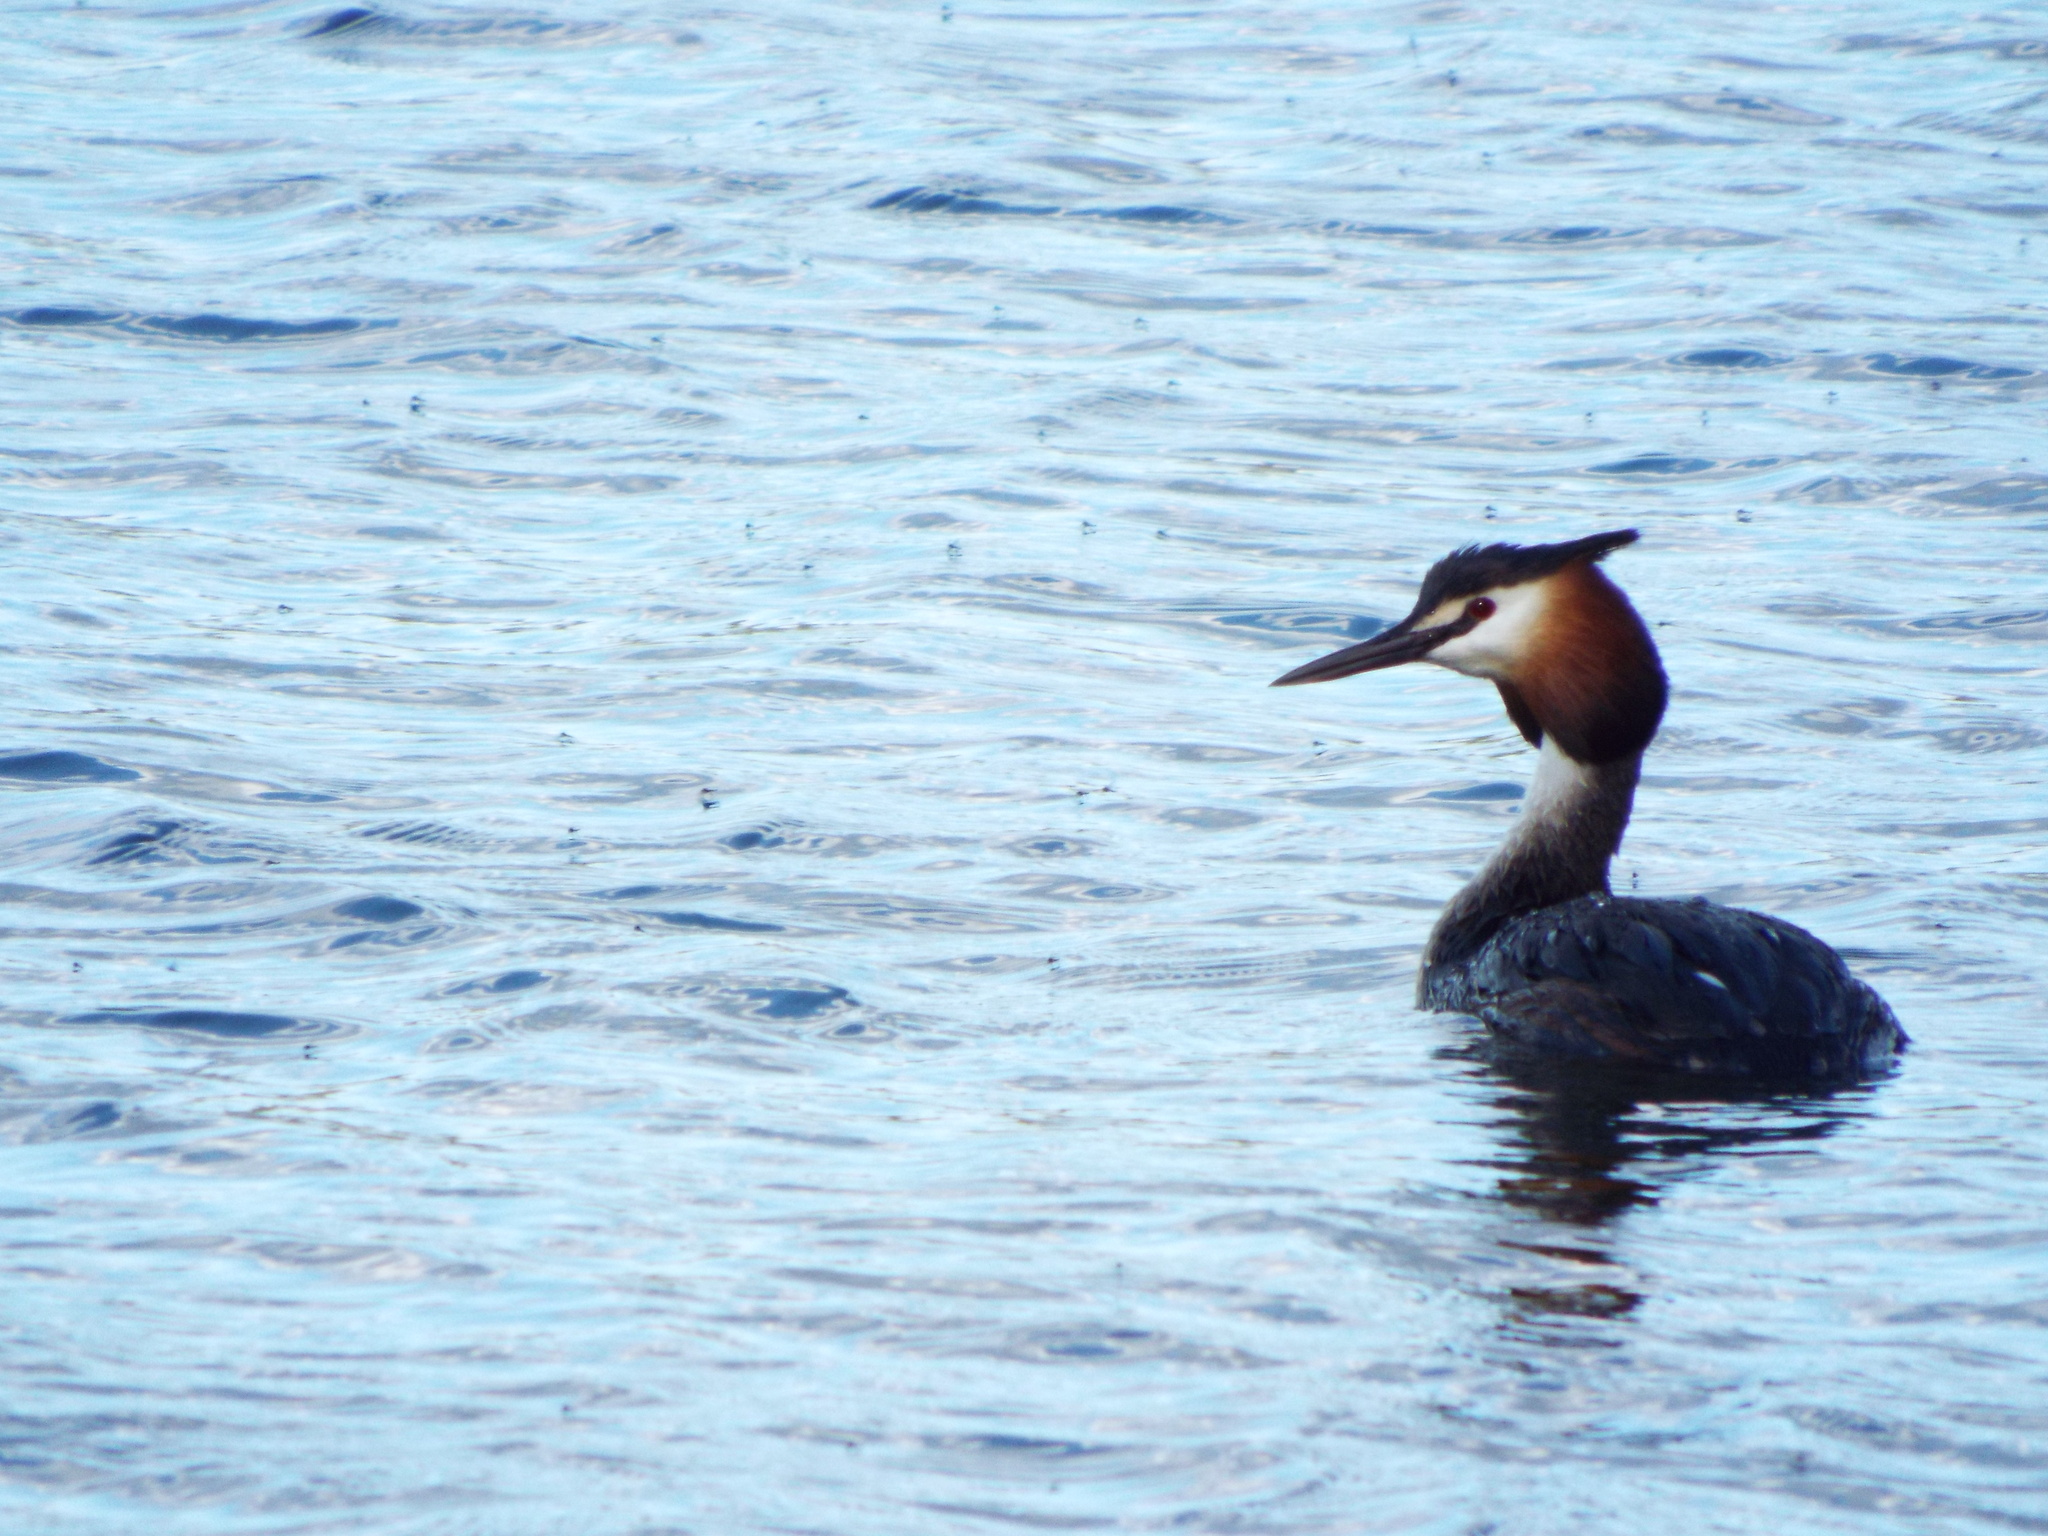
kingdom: Animalia
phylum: Chordata
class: Aves
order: Podicipediformes
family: Podicipedidae
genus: Podiceps
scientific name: Podiceps cristatus
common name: Great crested grebe
